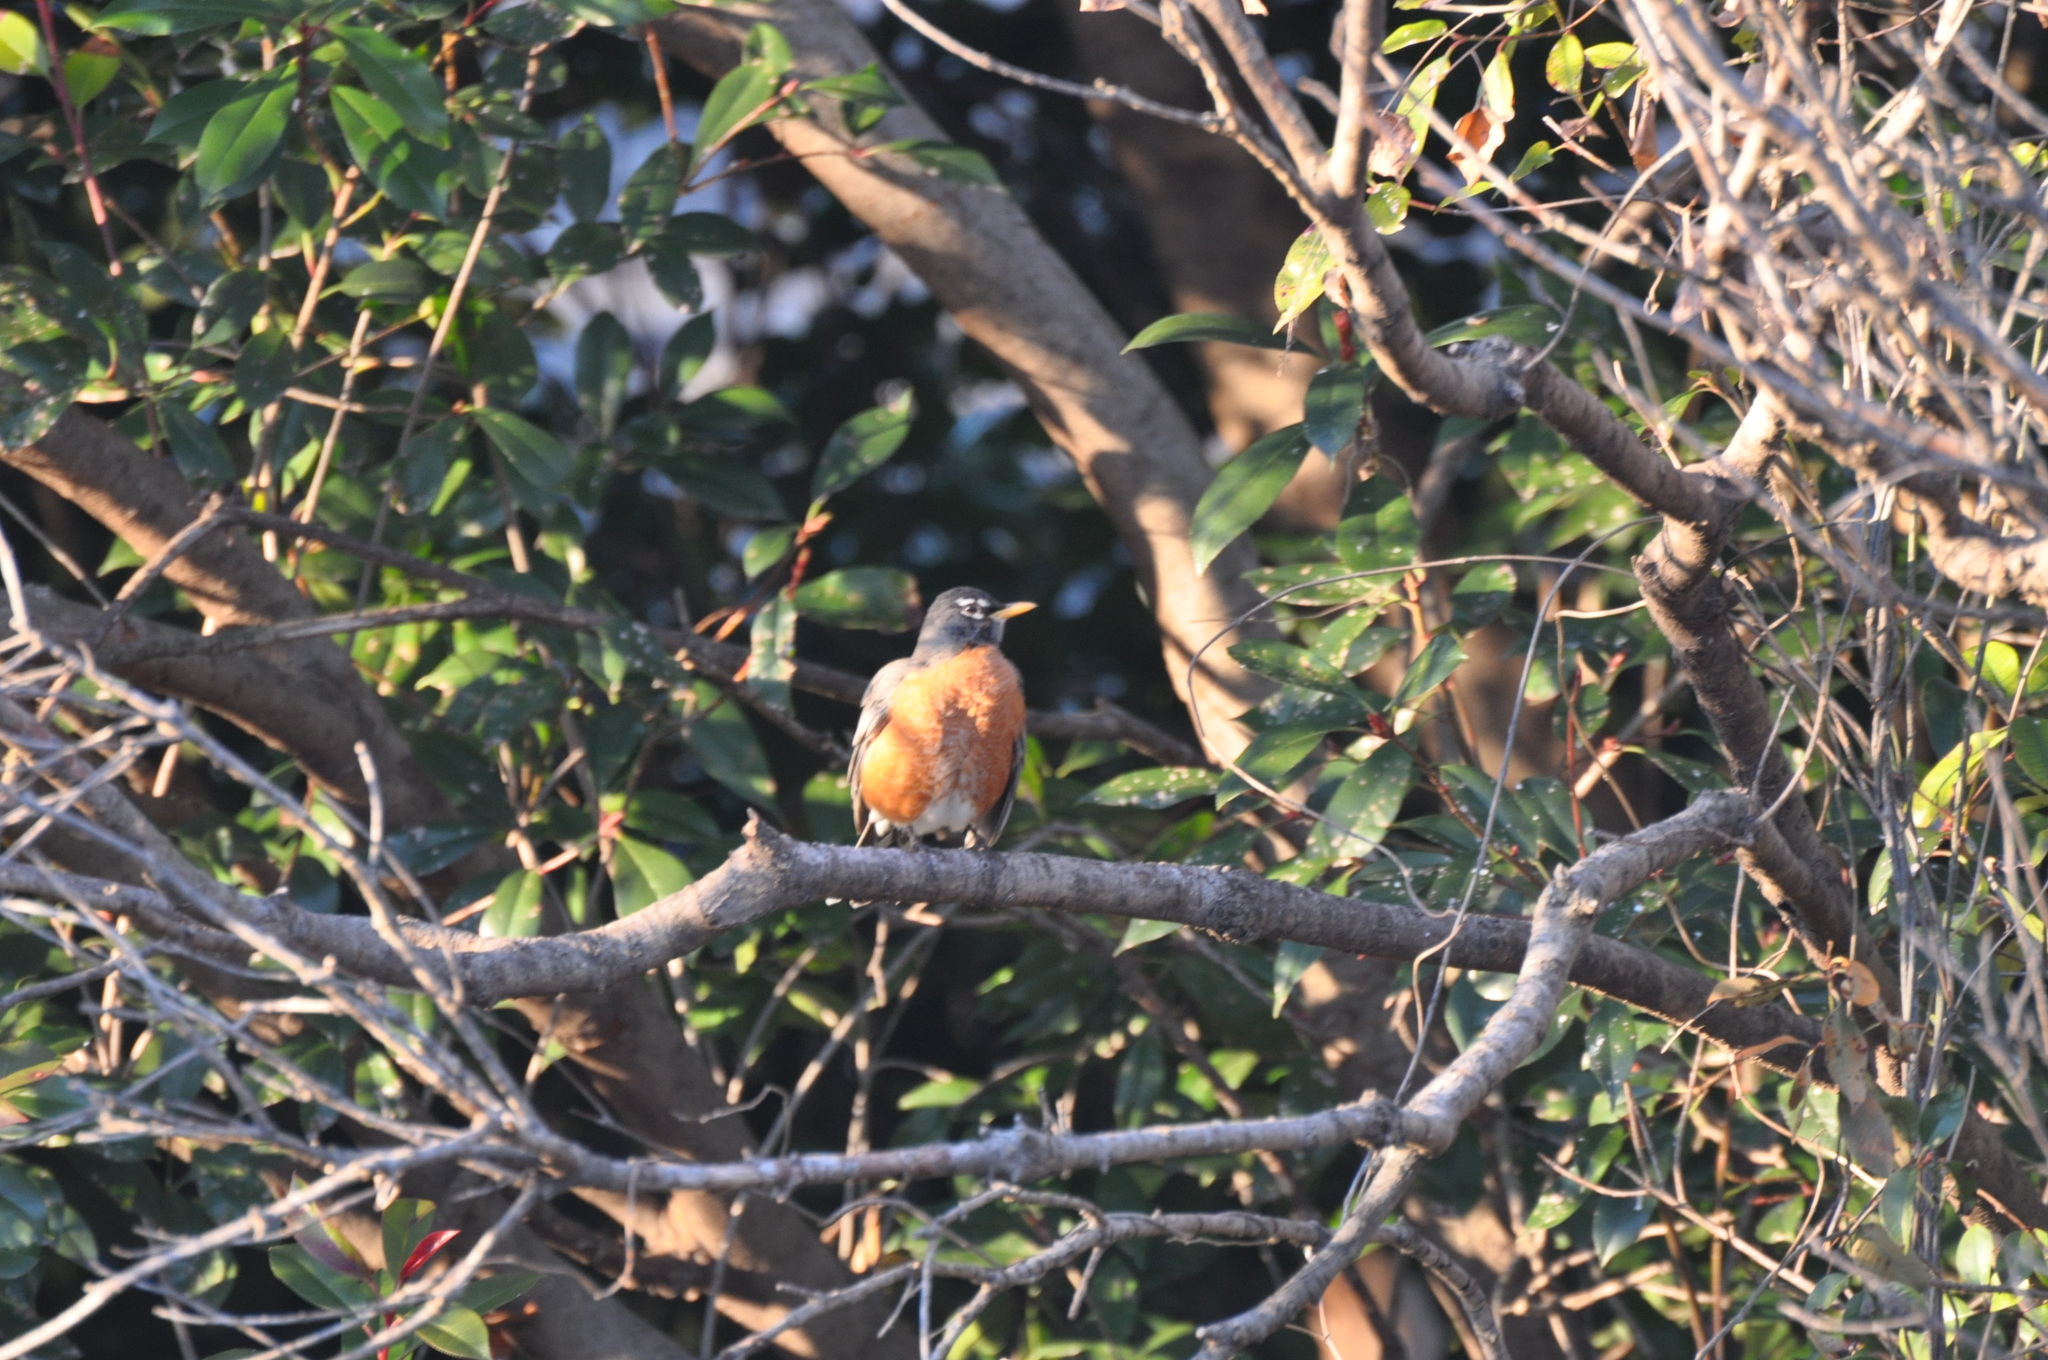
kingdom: Animalia
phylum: Chordata
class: Aves
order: Passeriformes
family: Turdidae
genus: Turdus
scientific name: Turdus migratorius
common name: American robin
